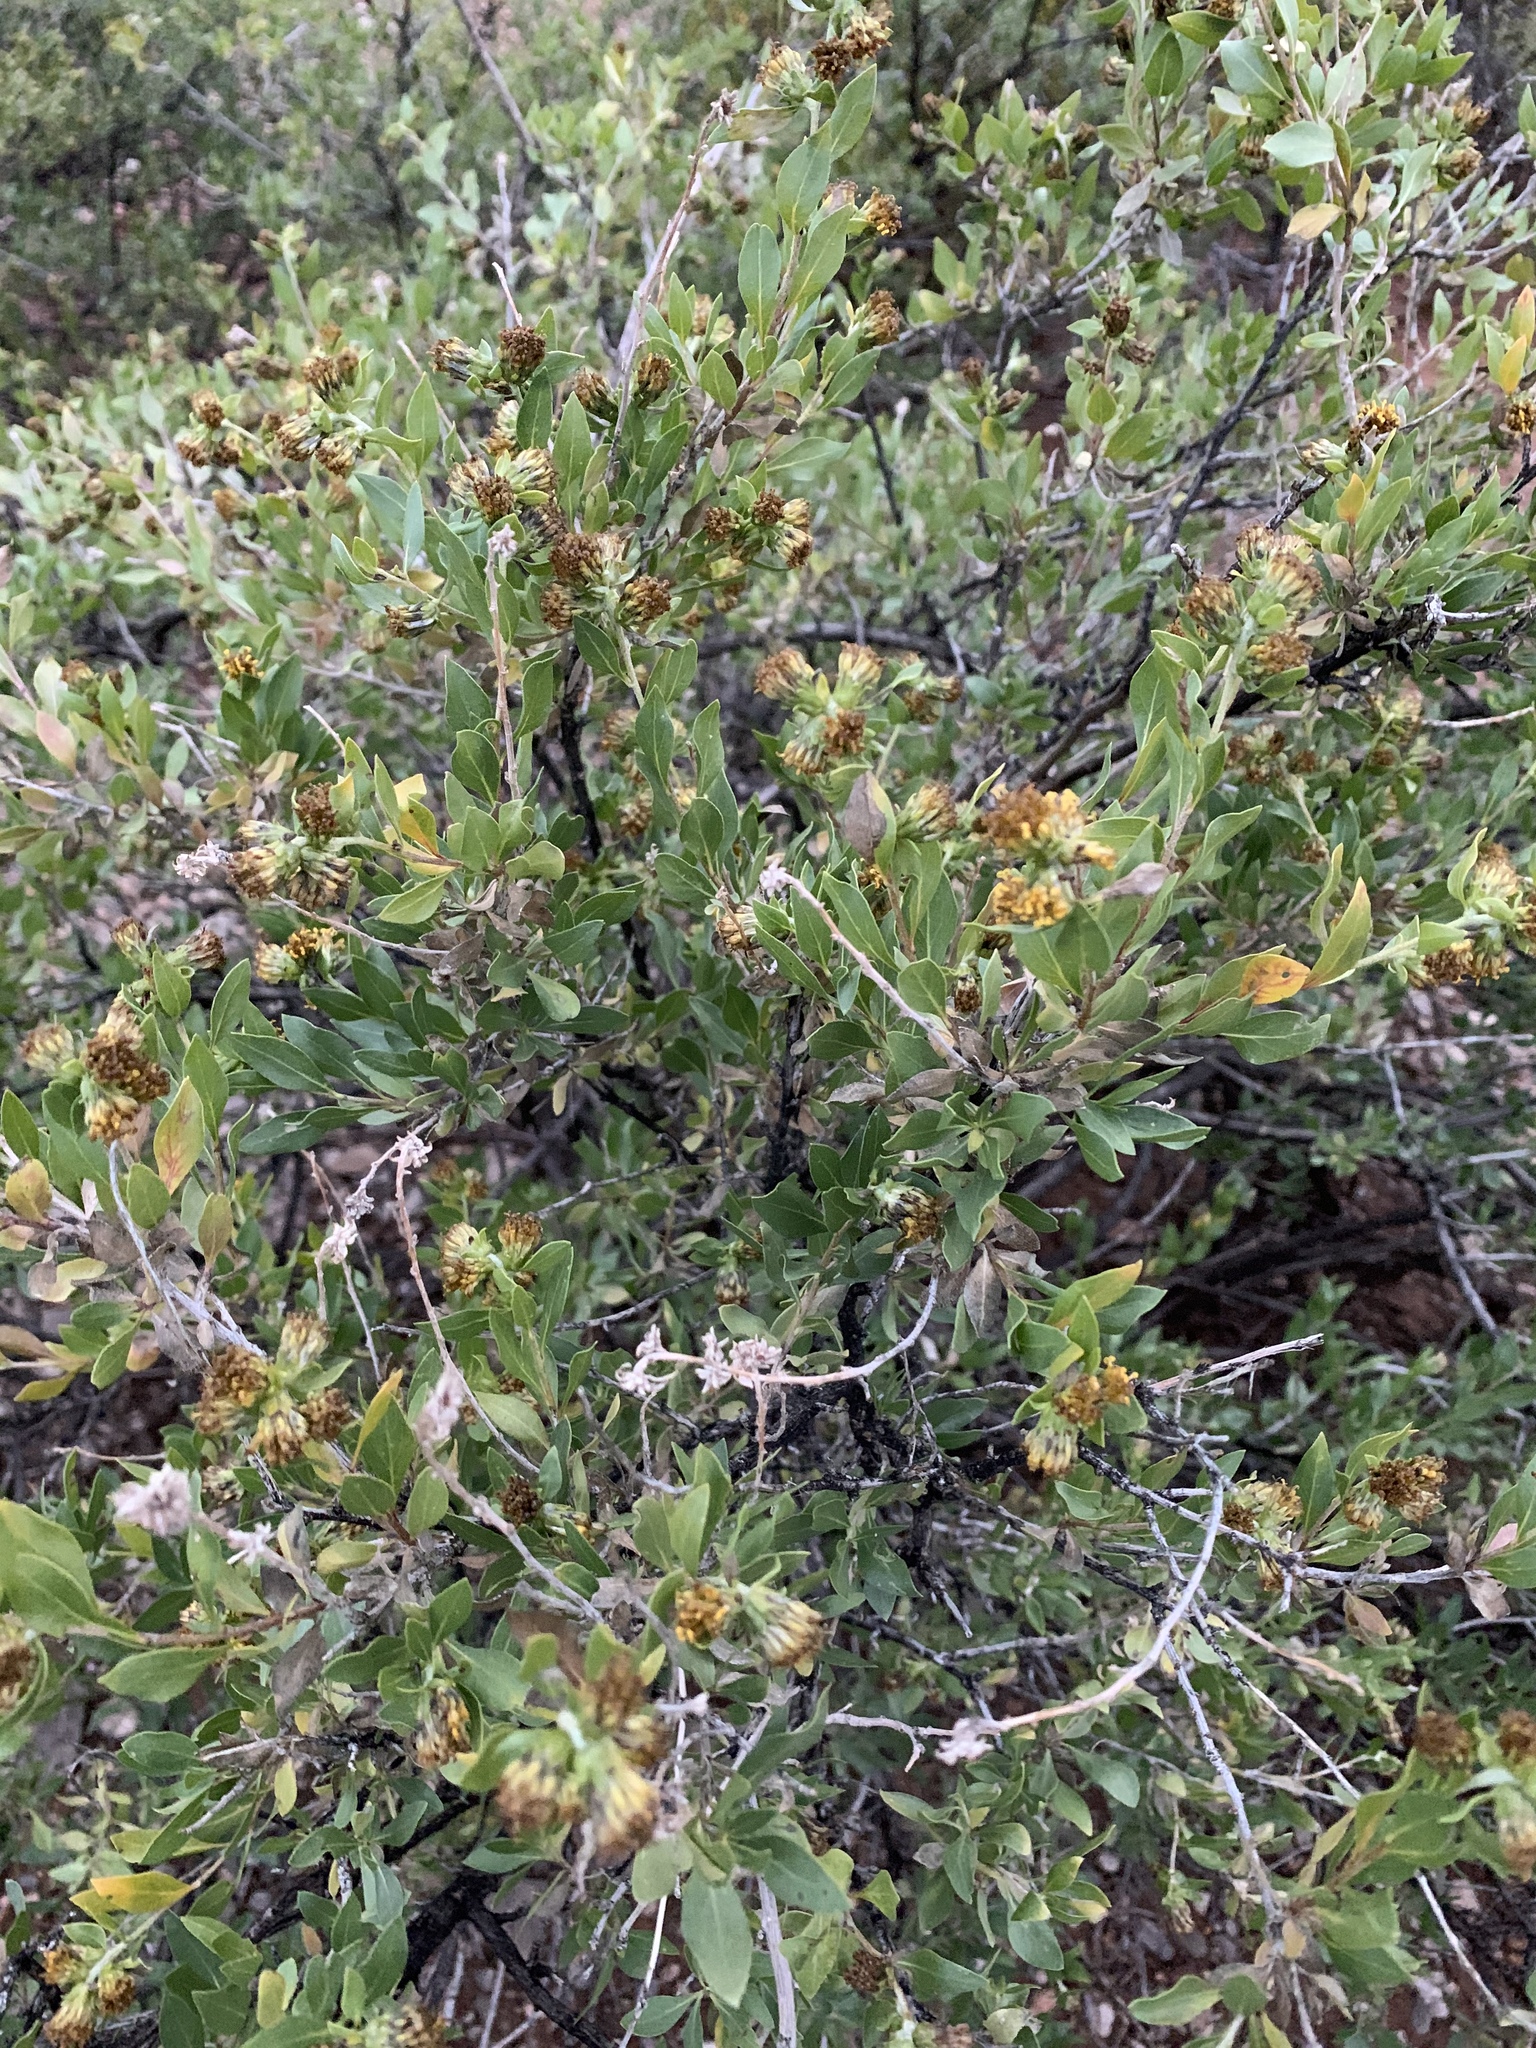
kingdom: Plantae
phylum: Tracheophyta
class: Magnoliopsida
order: Asterales
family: Asteraceae
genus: Flourensia
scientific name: Flourensia cernua
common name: Varnishbush
